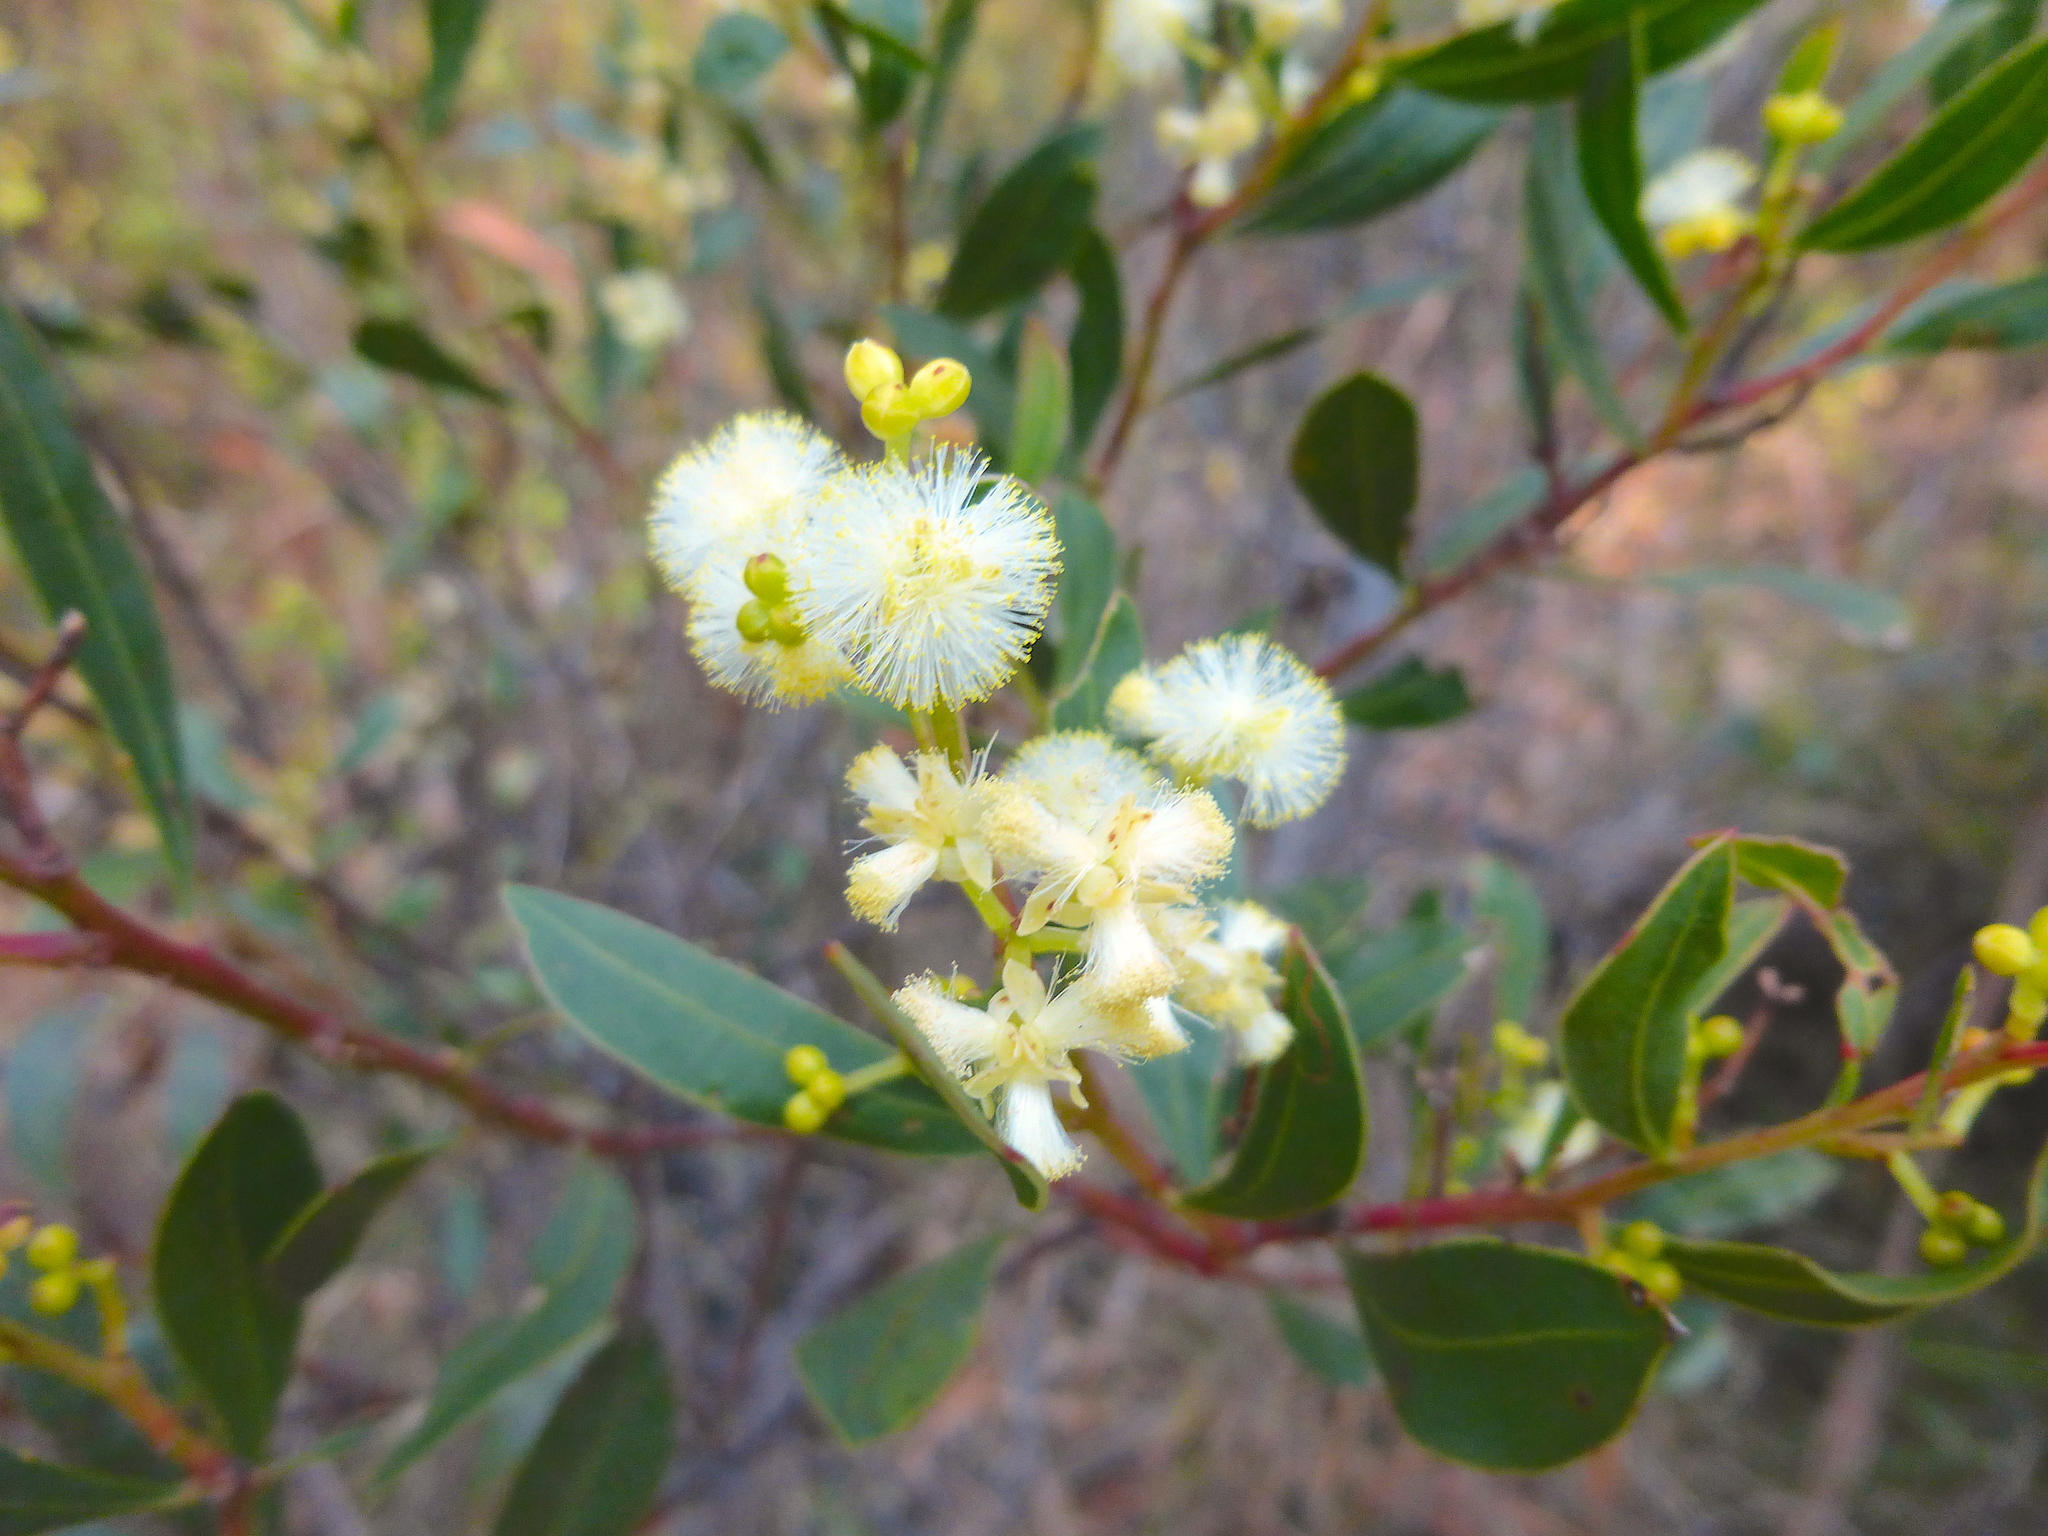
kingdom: Plantae
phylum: Tracheophyta
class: Magnoliopsida
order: Fabales
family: Fabaceae
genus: Acacia
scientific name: Acacia myrtifolia
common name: Myrtle wattle
